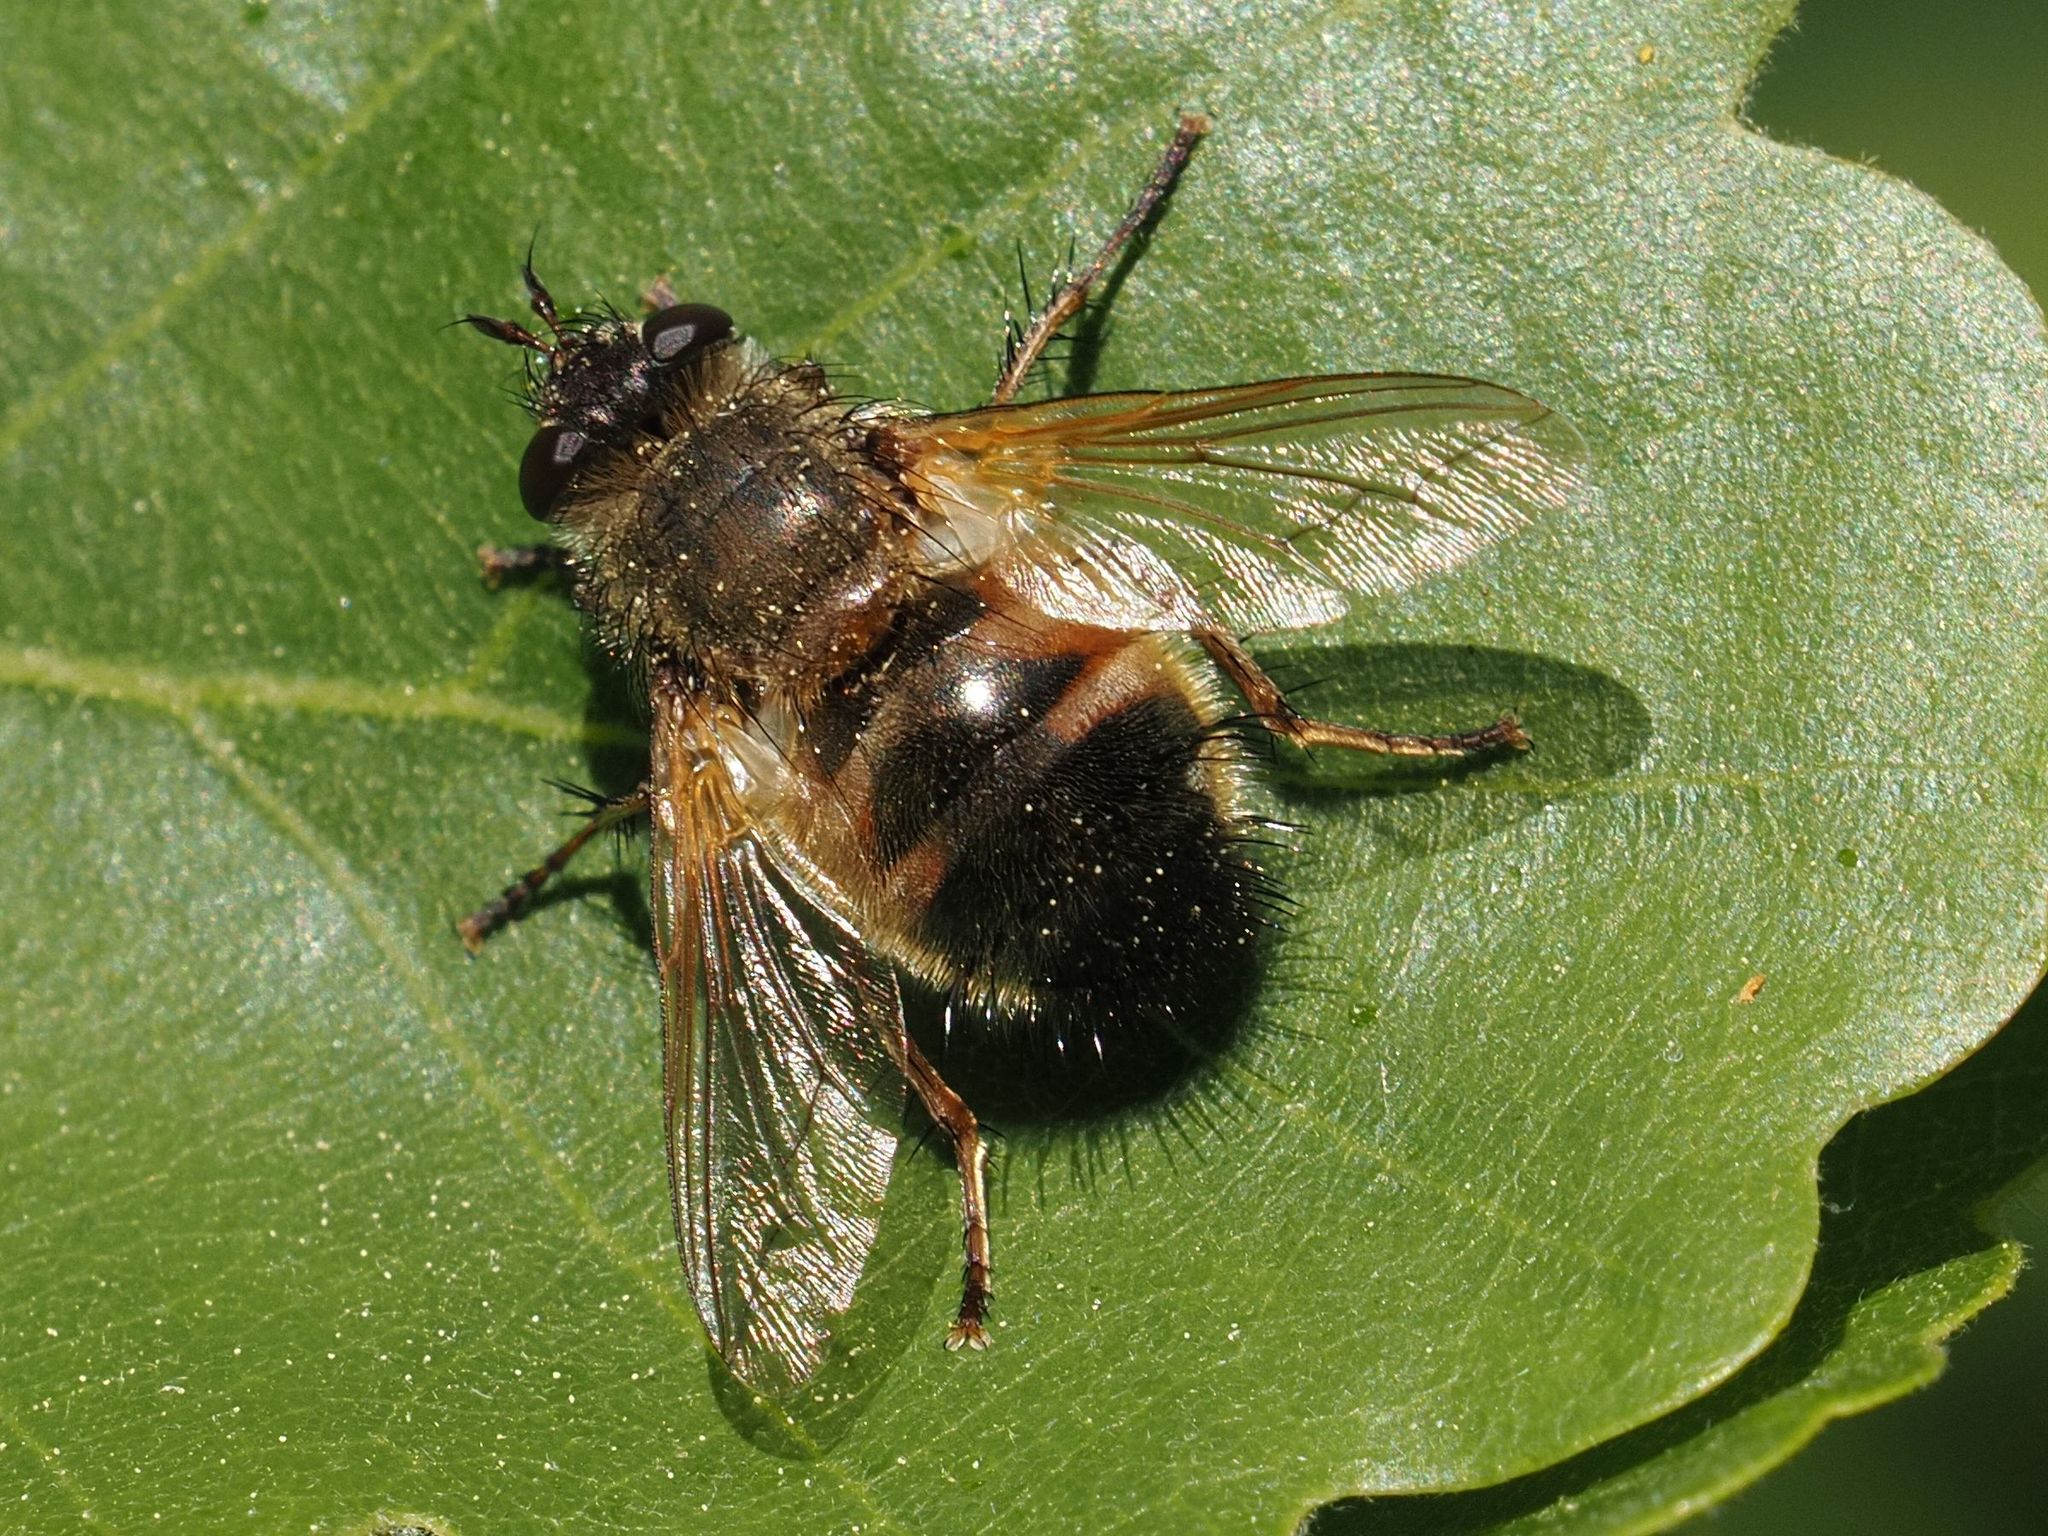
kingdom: Animalia
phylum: Arthropoda
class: Insecta
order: Diptera
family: Tachinidae
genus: Tachina
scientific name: Tachina lurida
